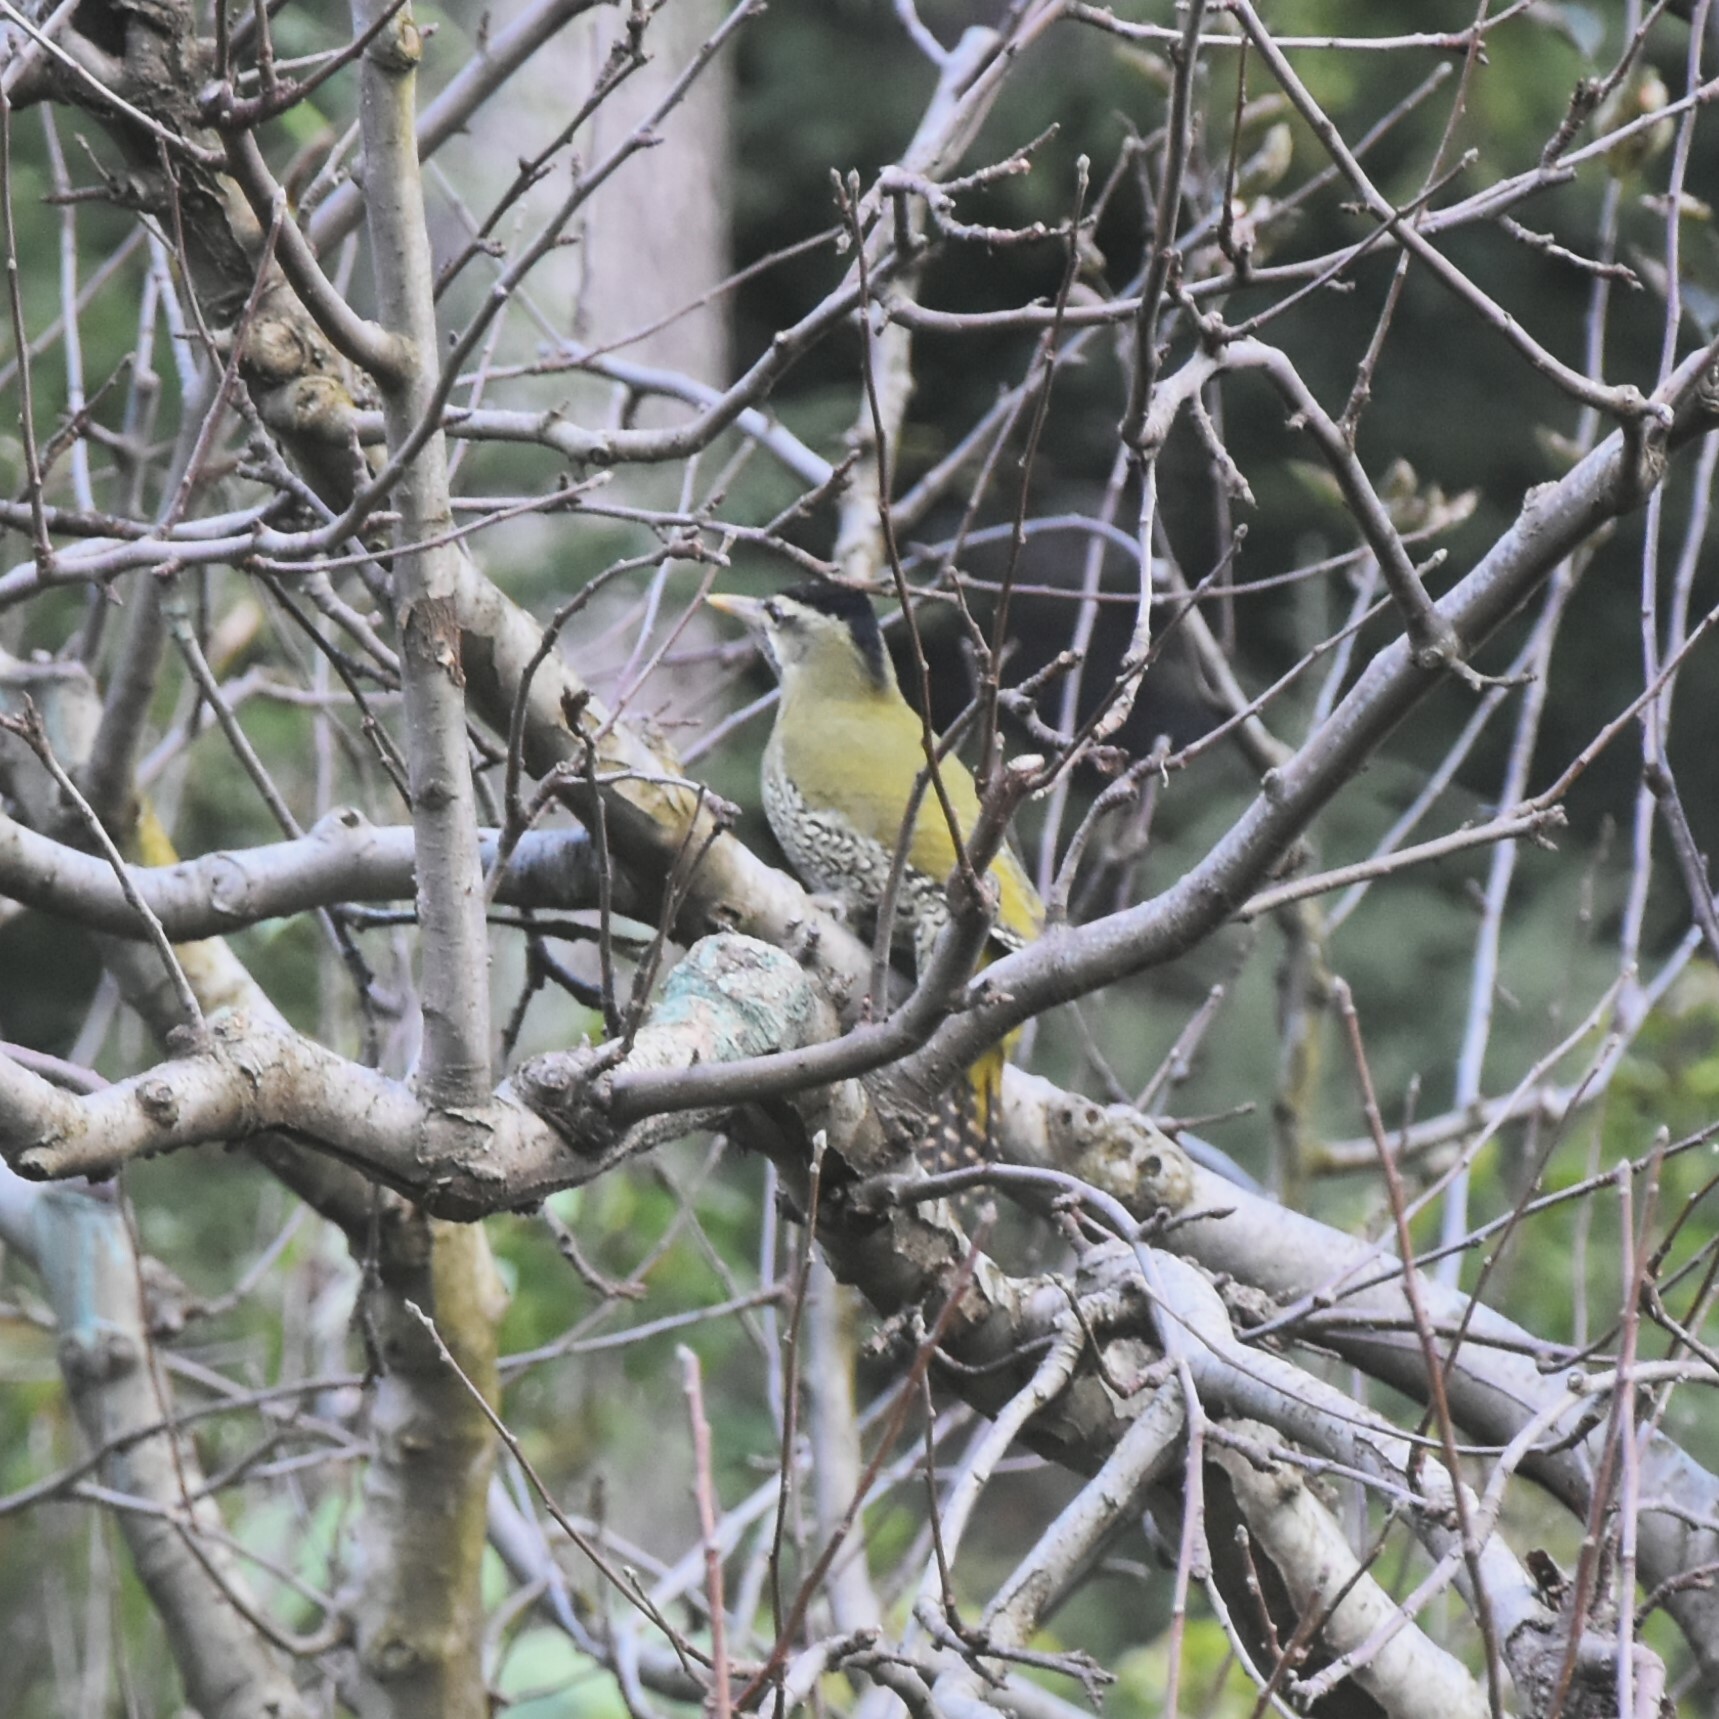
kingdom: Animalia
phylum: Chordata
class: Aves
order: Piciformes
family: Picidae
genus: Picus
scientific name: Picus squamatus
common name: Scaly-bellied woodpecker
